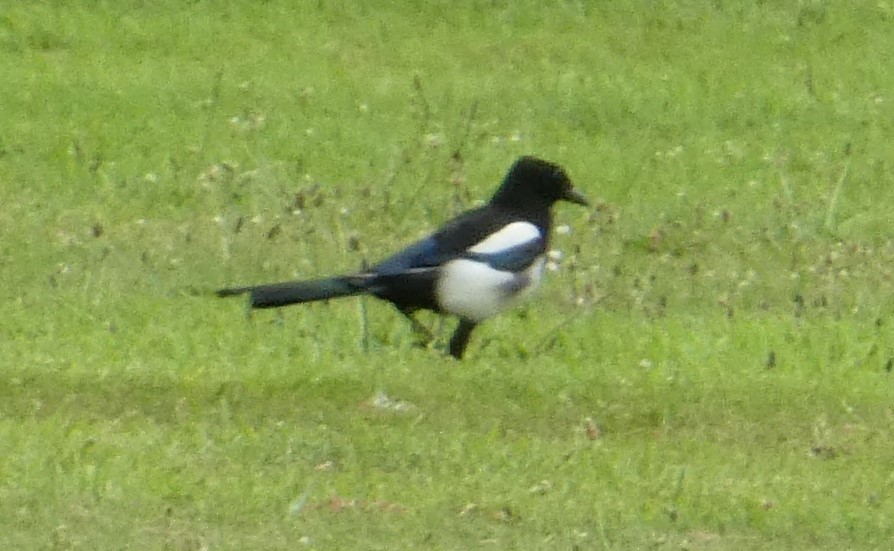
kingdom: Animalia
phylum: Chordata
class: Aves
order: Passeriformes
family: Corvidae
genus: Pica
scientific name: Pica pica
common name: Eurasian magpie
